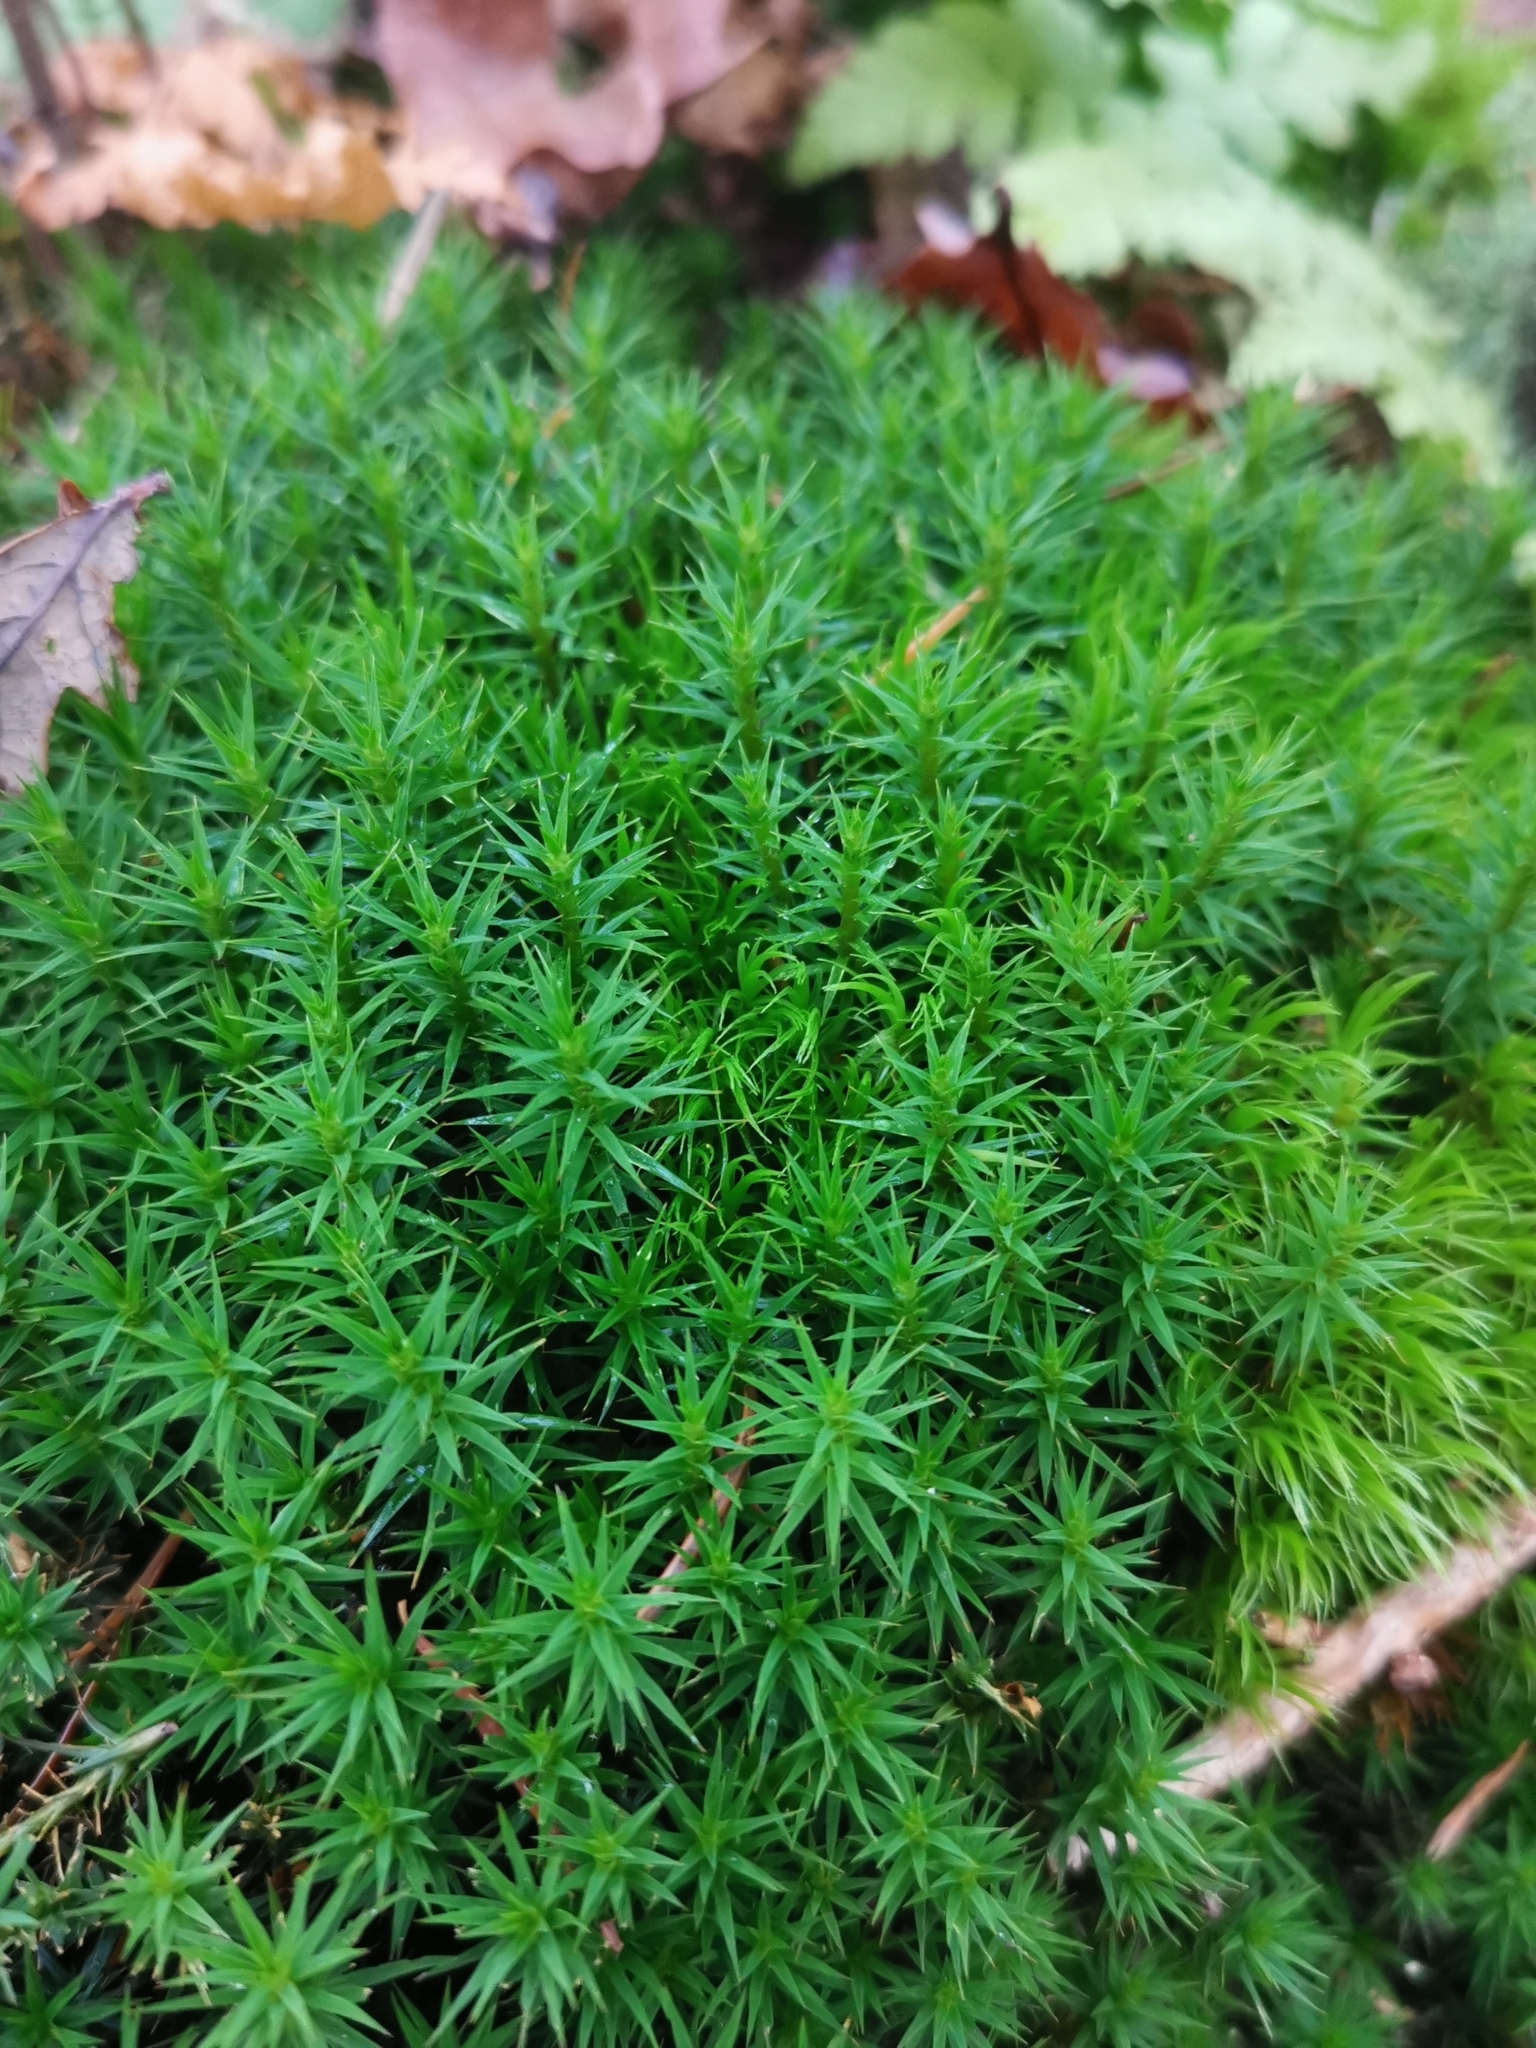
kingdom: Plantae
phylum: Bryophyta
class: Polytrichopsida
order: Polytrichales
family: Polytrichaceae
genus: Polytrichum
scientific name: Polytrichum formosum
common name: Bank haircap moss
